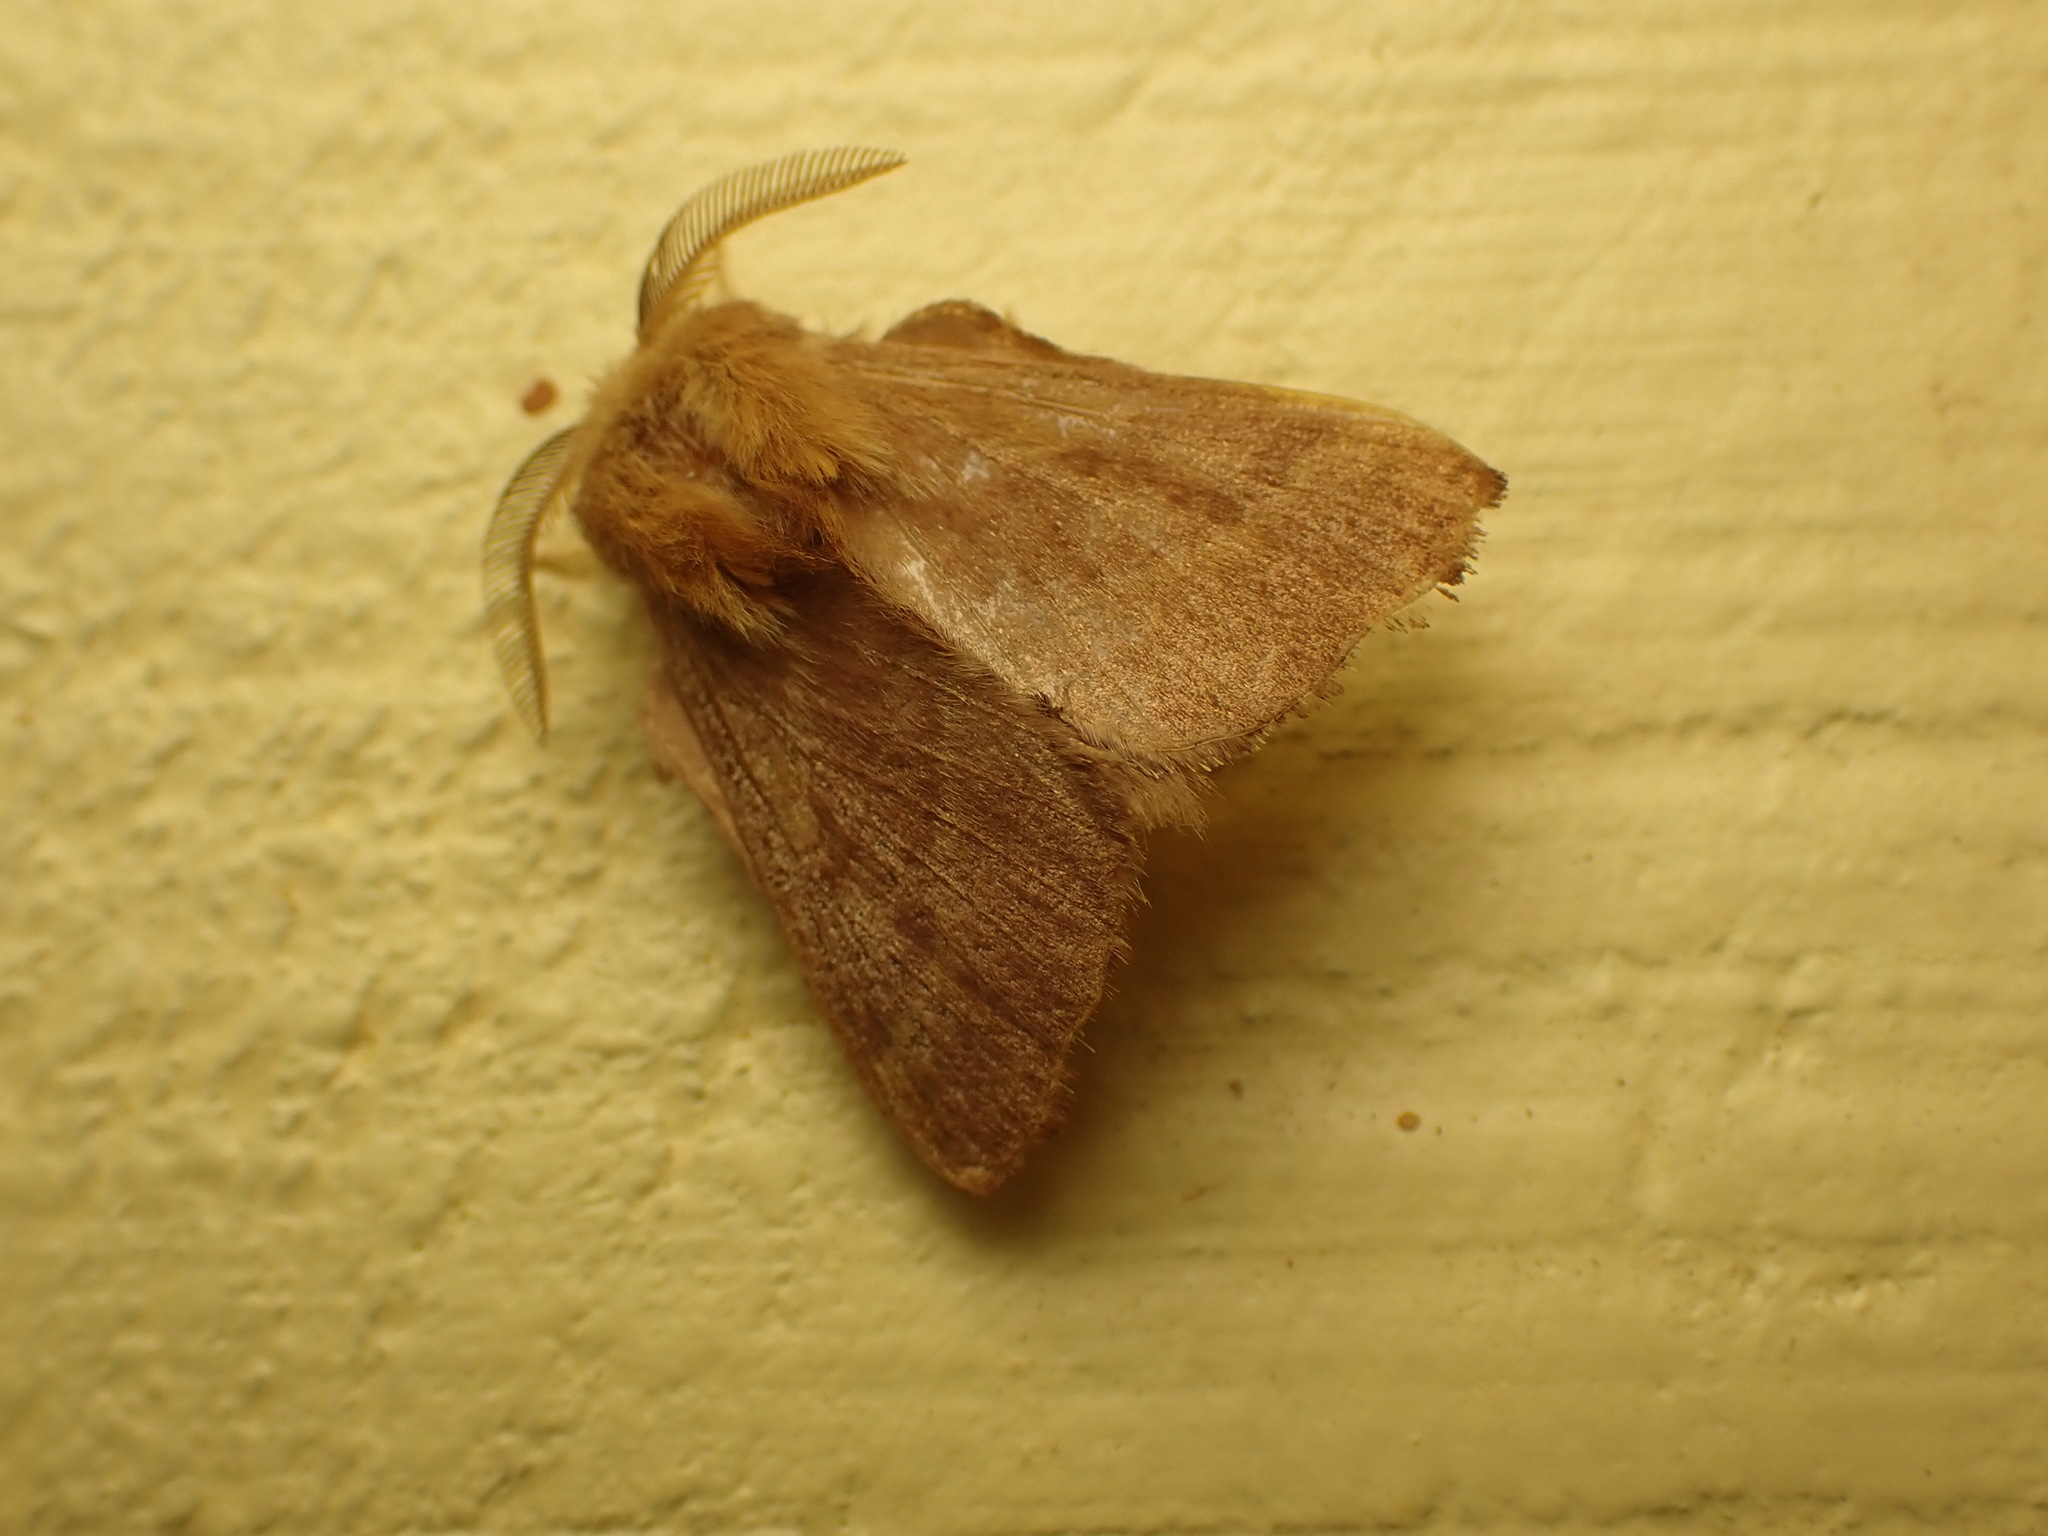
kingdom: Animalia
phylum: Arthropoda
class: Insecta
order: Lepidoptera
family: Lasiocampidae
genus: Malacosoma
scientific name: Malacosoma disstria
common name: Forest tent caterpillar
